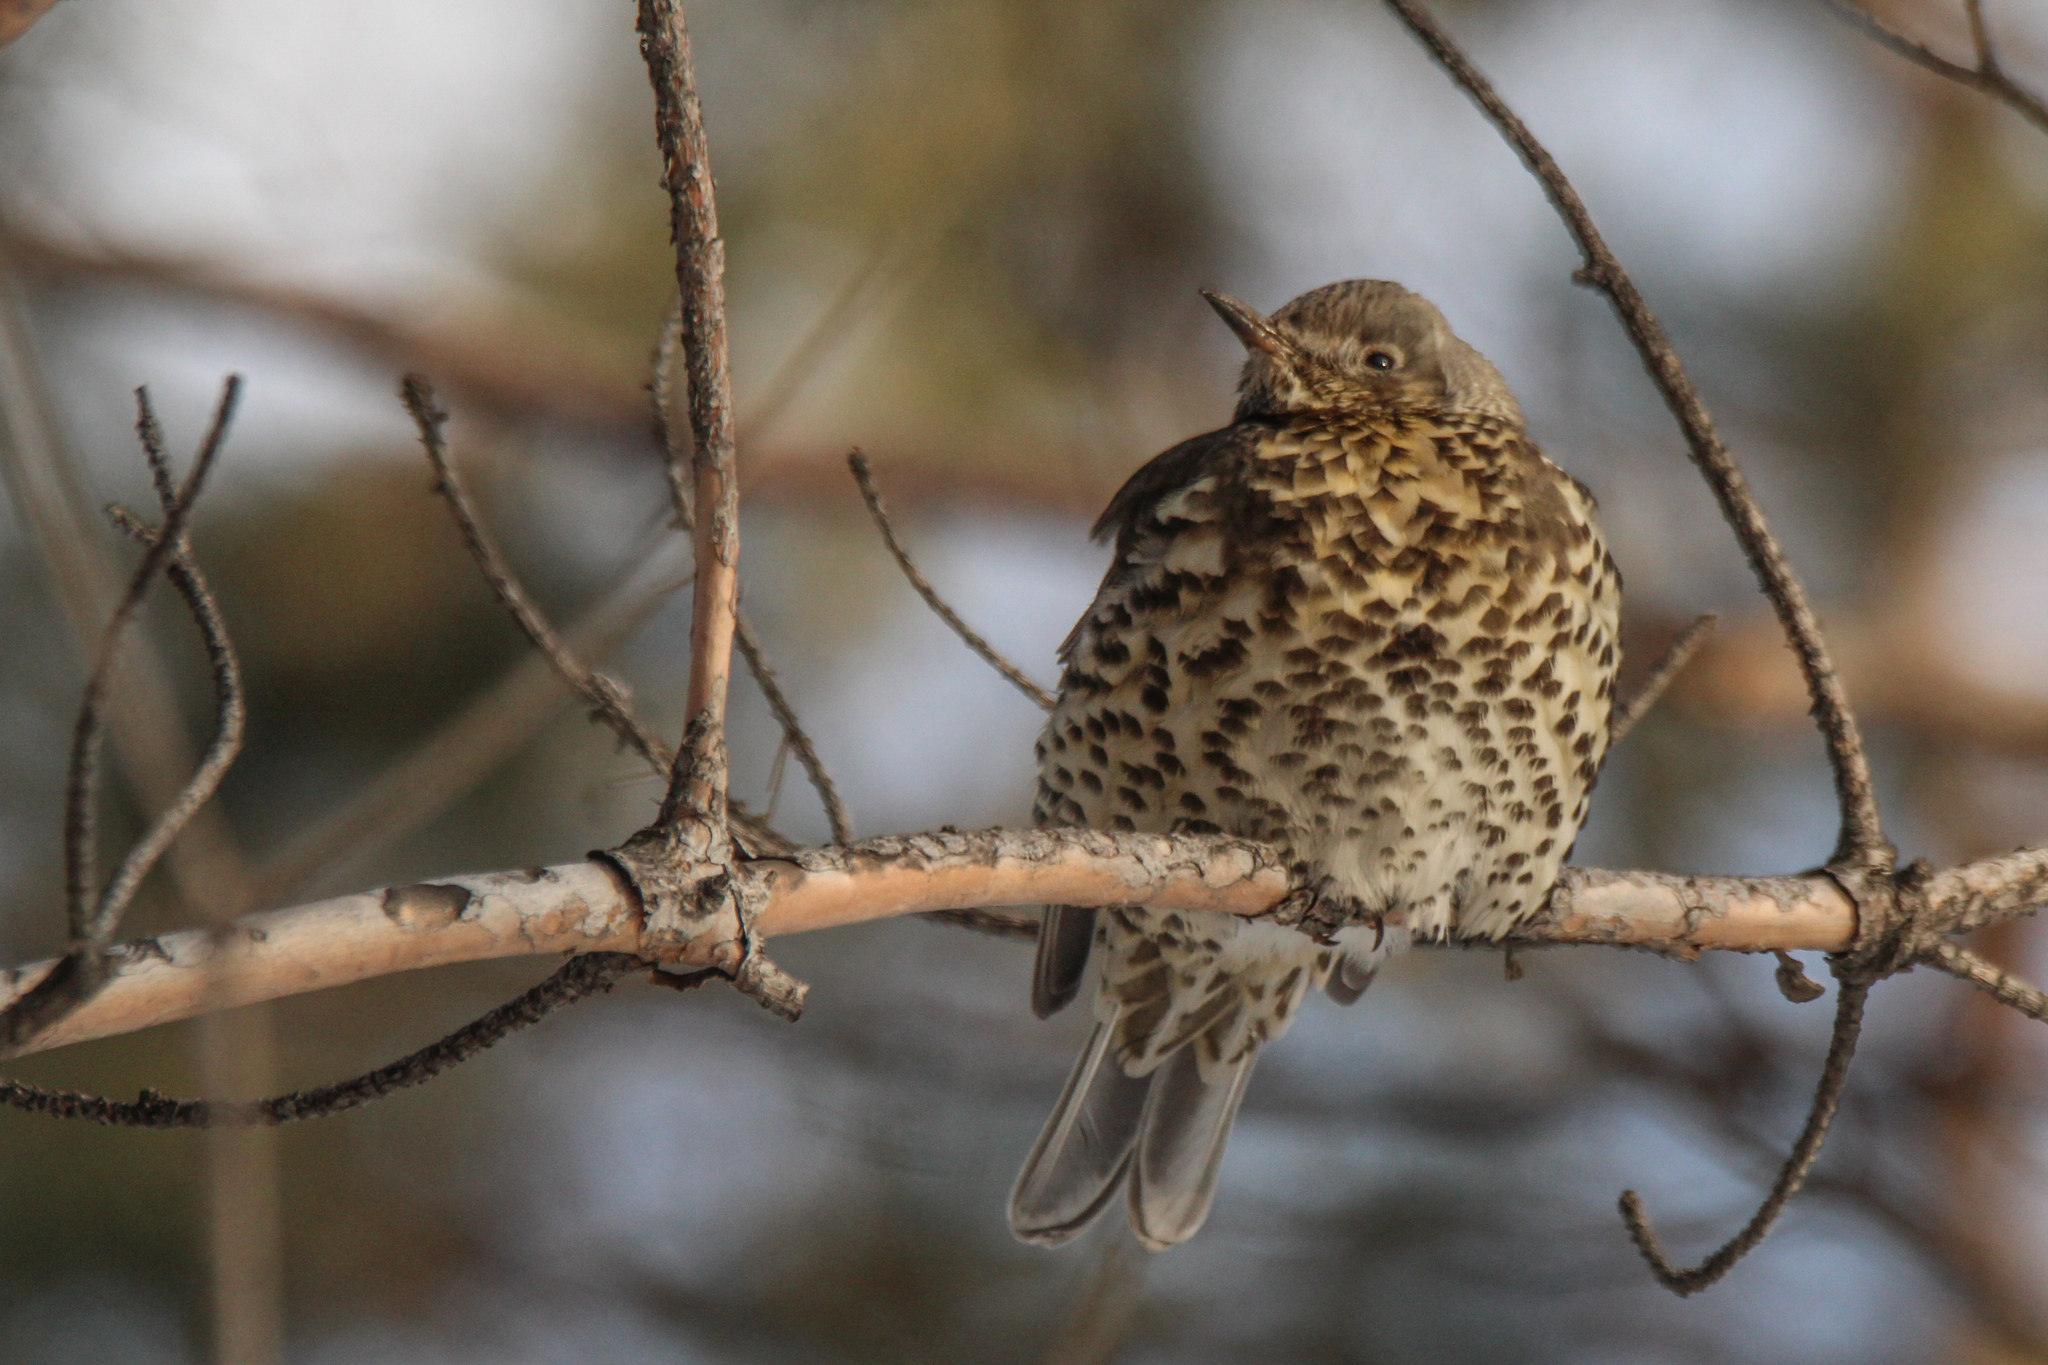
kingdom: Animalia
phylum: Chordata
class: Aves
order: Passeriformes
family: Turdidae
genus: Turdus
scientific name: Turdus viscivorus
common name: Mistle thrush
